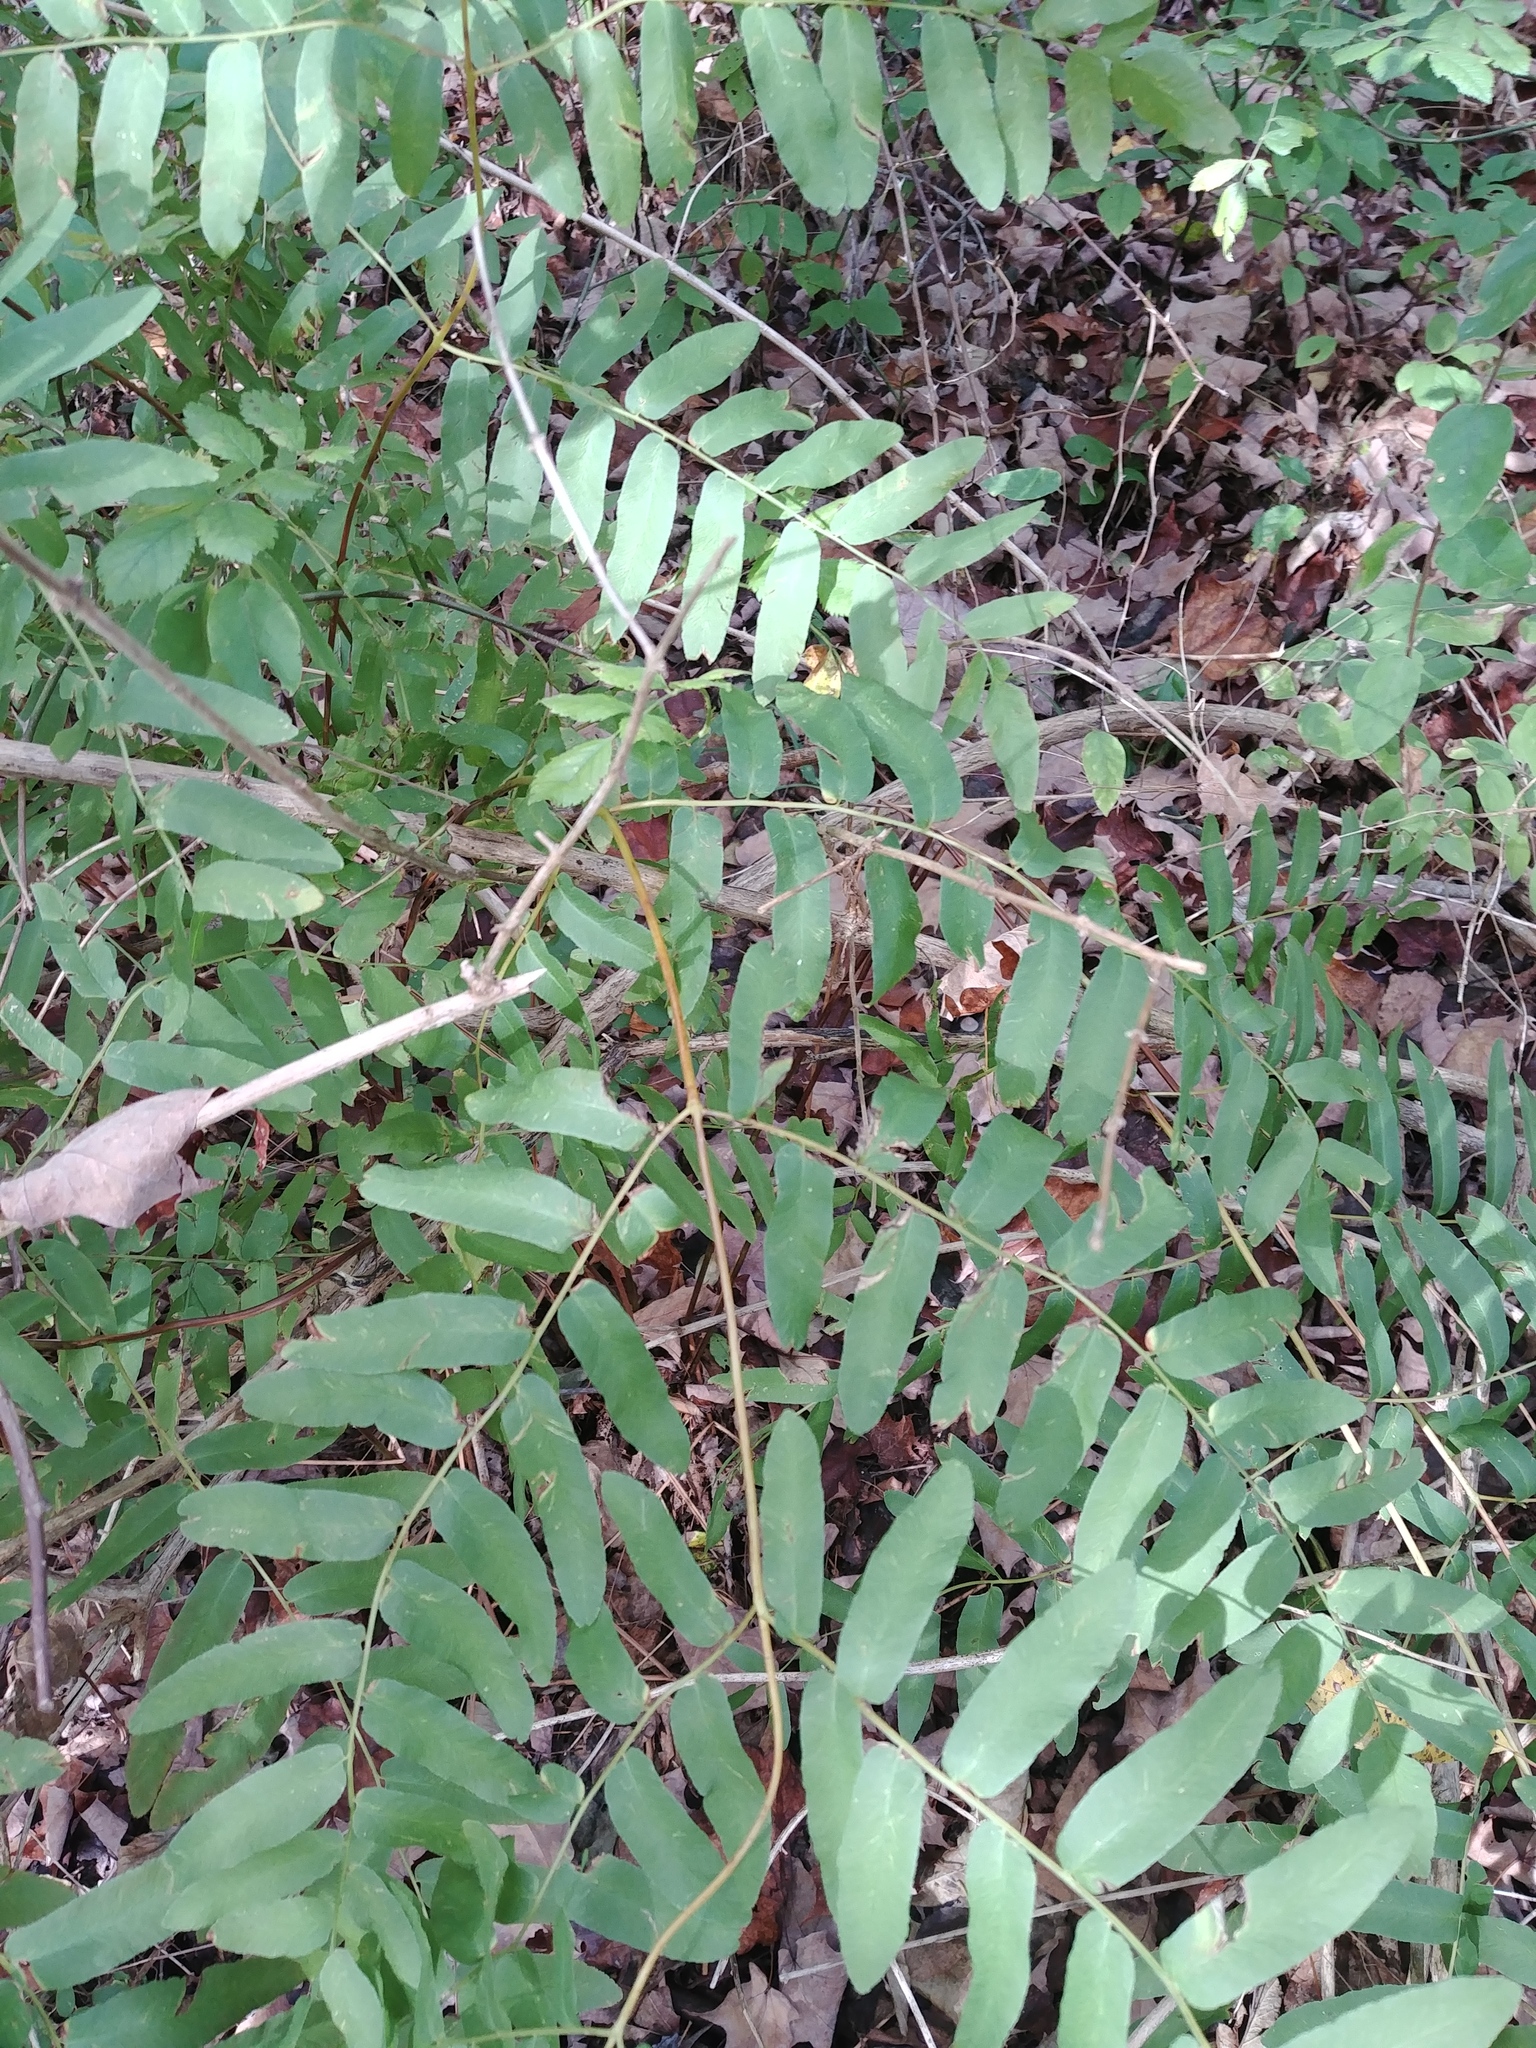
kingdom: Plantae
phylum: Tracheophyta
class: Polypodiopsida
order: Osmundales
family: Osmundaceae
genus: Osmunda
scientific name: Osmunda spectabilis
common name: American royal fern
